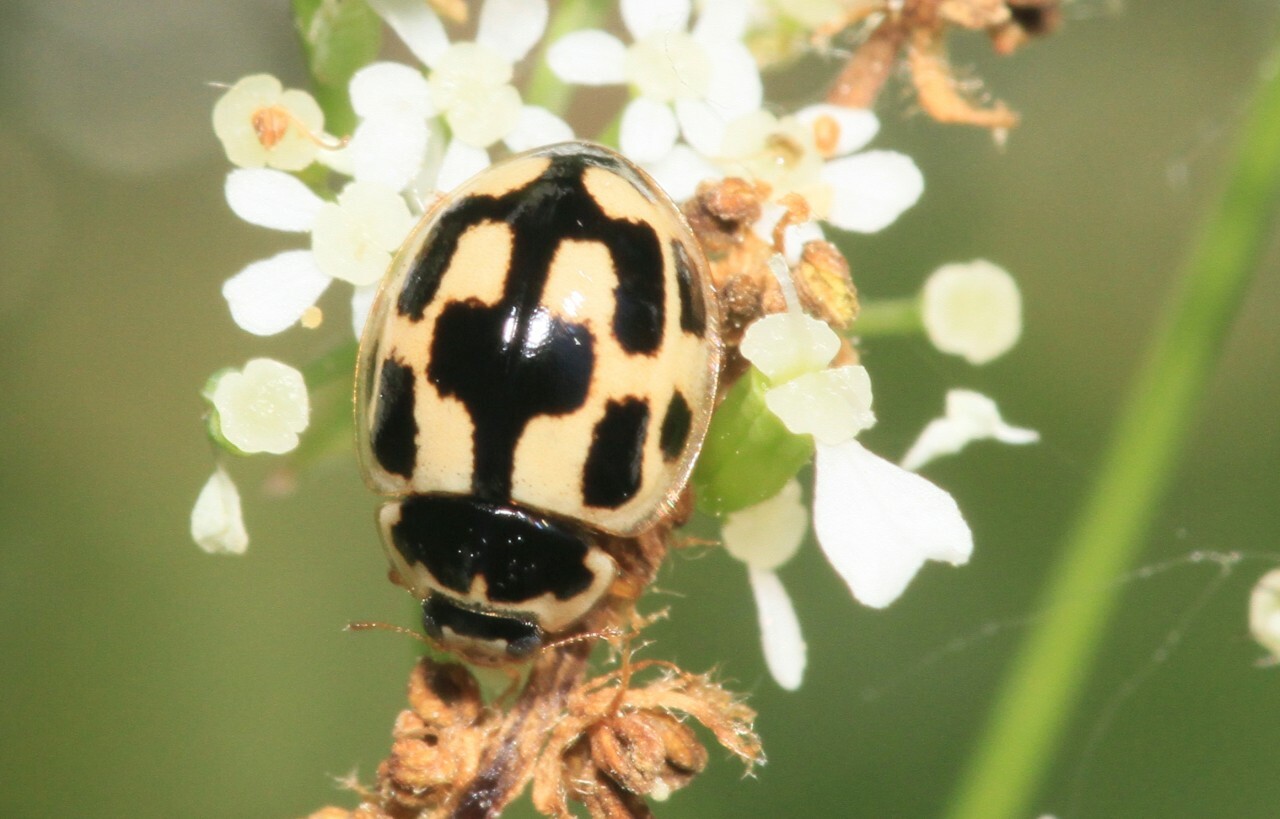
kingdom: Animalia
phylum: Arthropoda
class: Insecta
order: Coleoptera
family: Coccinellidae
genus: Propylaea
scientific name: Propylaea quatuordecimpunctata
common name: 14-spotted ladybird beetle
